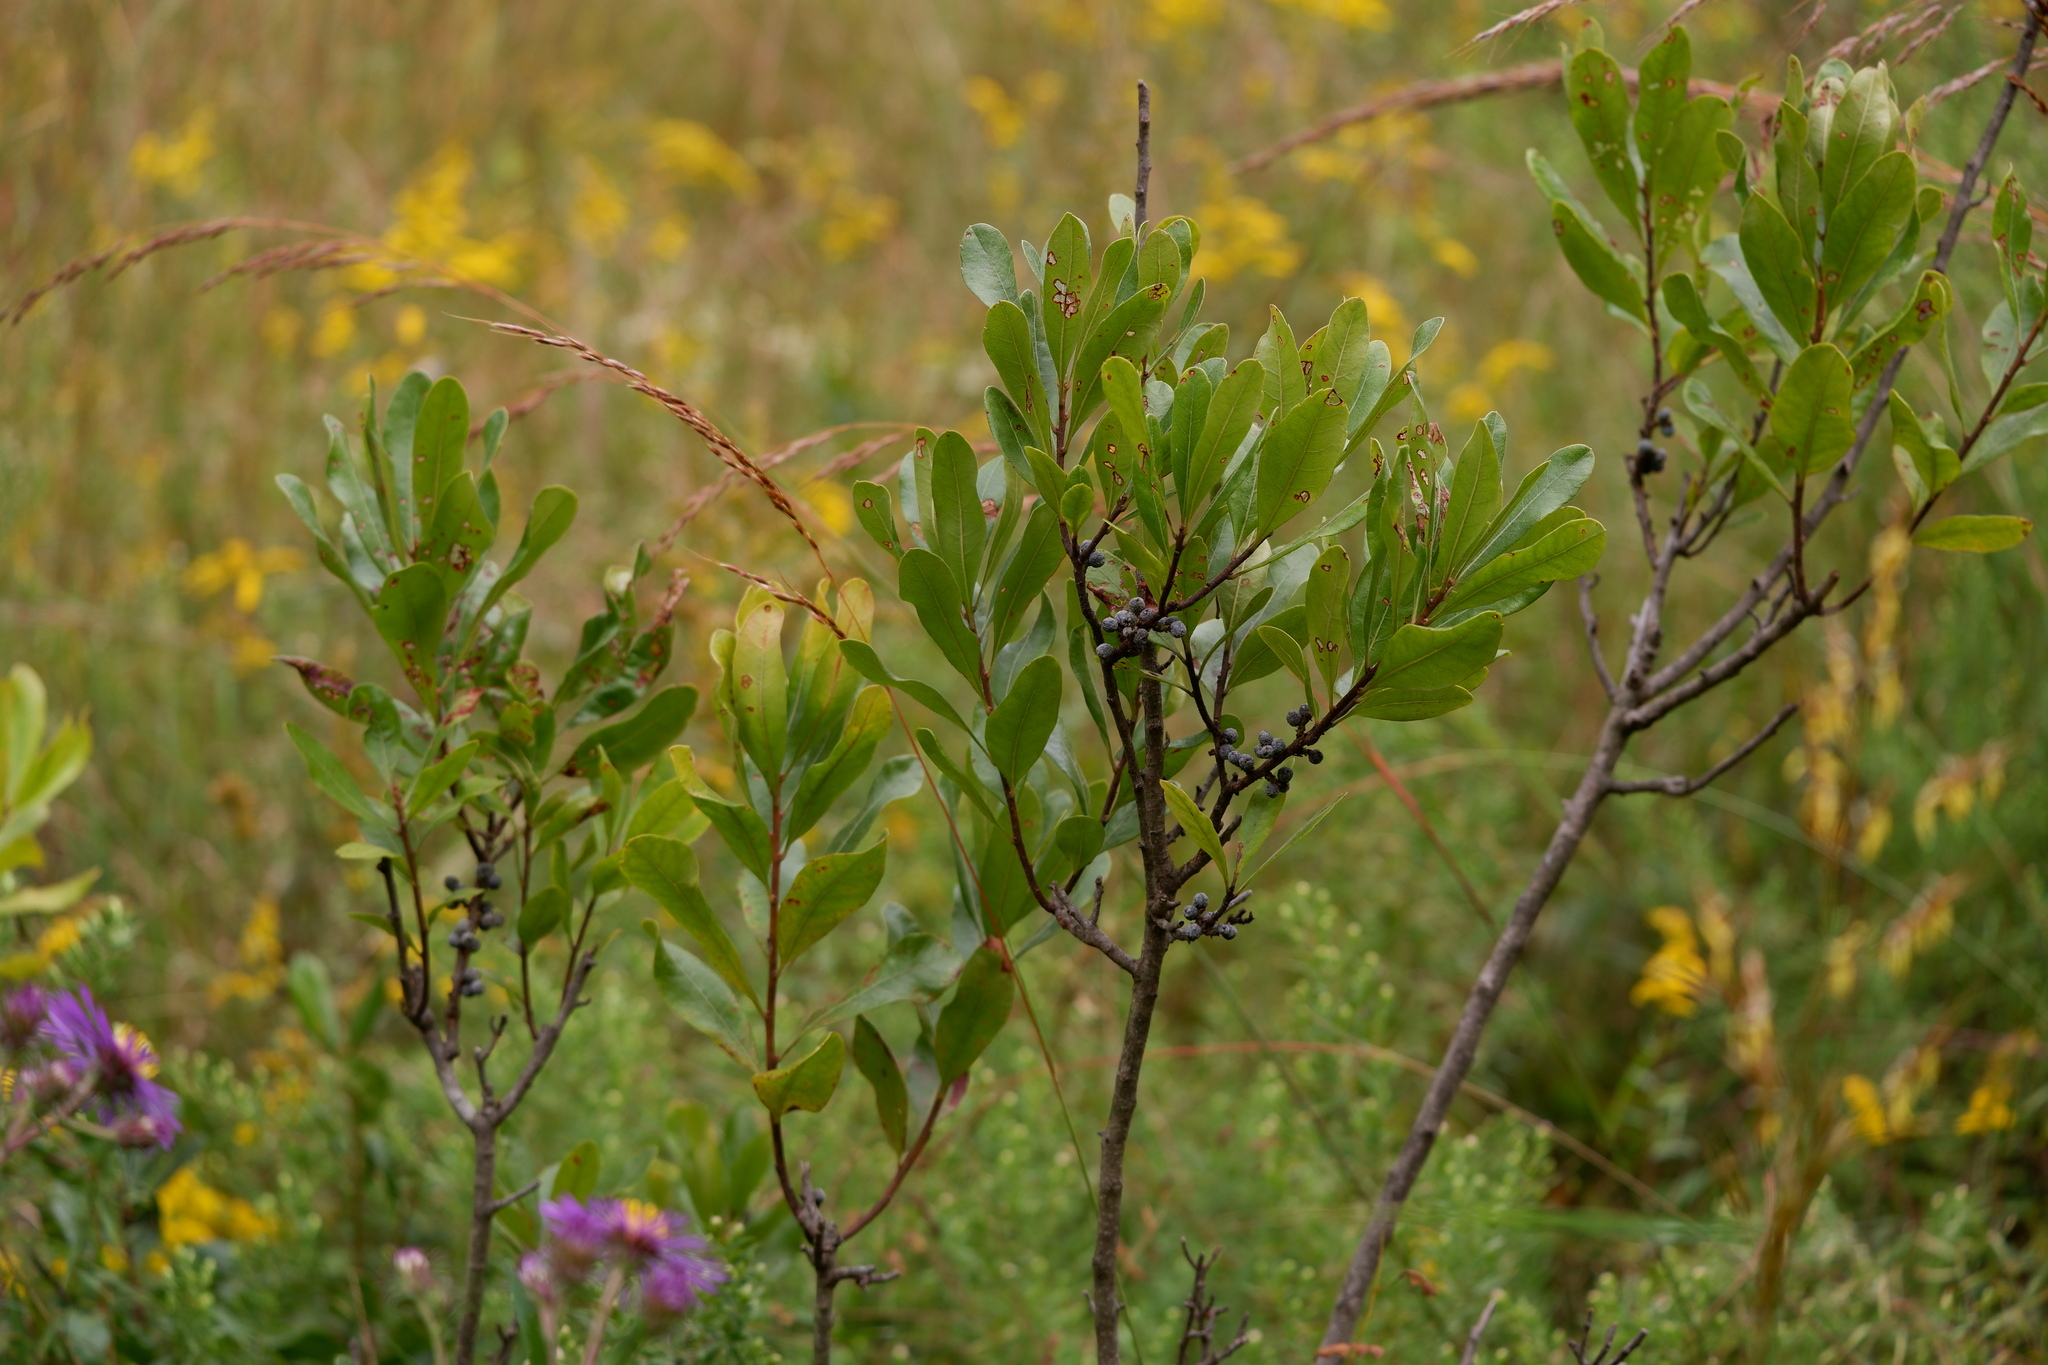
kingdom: Plantae
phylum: Tracheophyta
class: Magnoliopsida
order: Fagales
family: Myricaceae
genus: Morella
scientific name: Morella pensylvanica
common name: Northern bayberry
